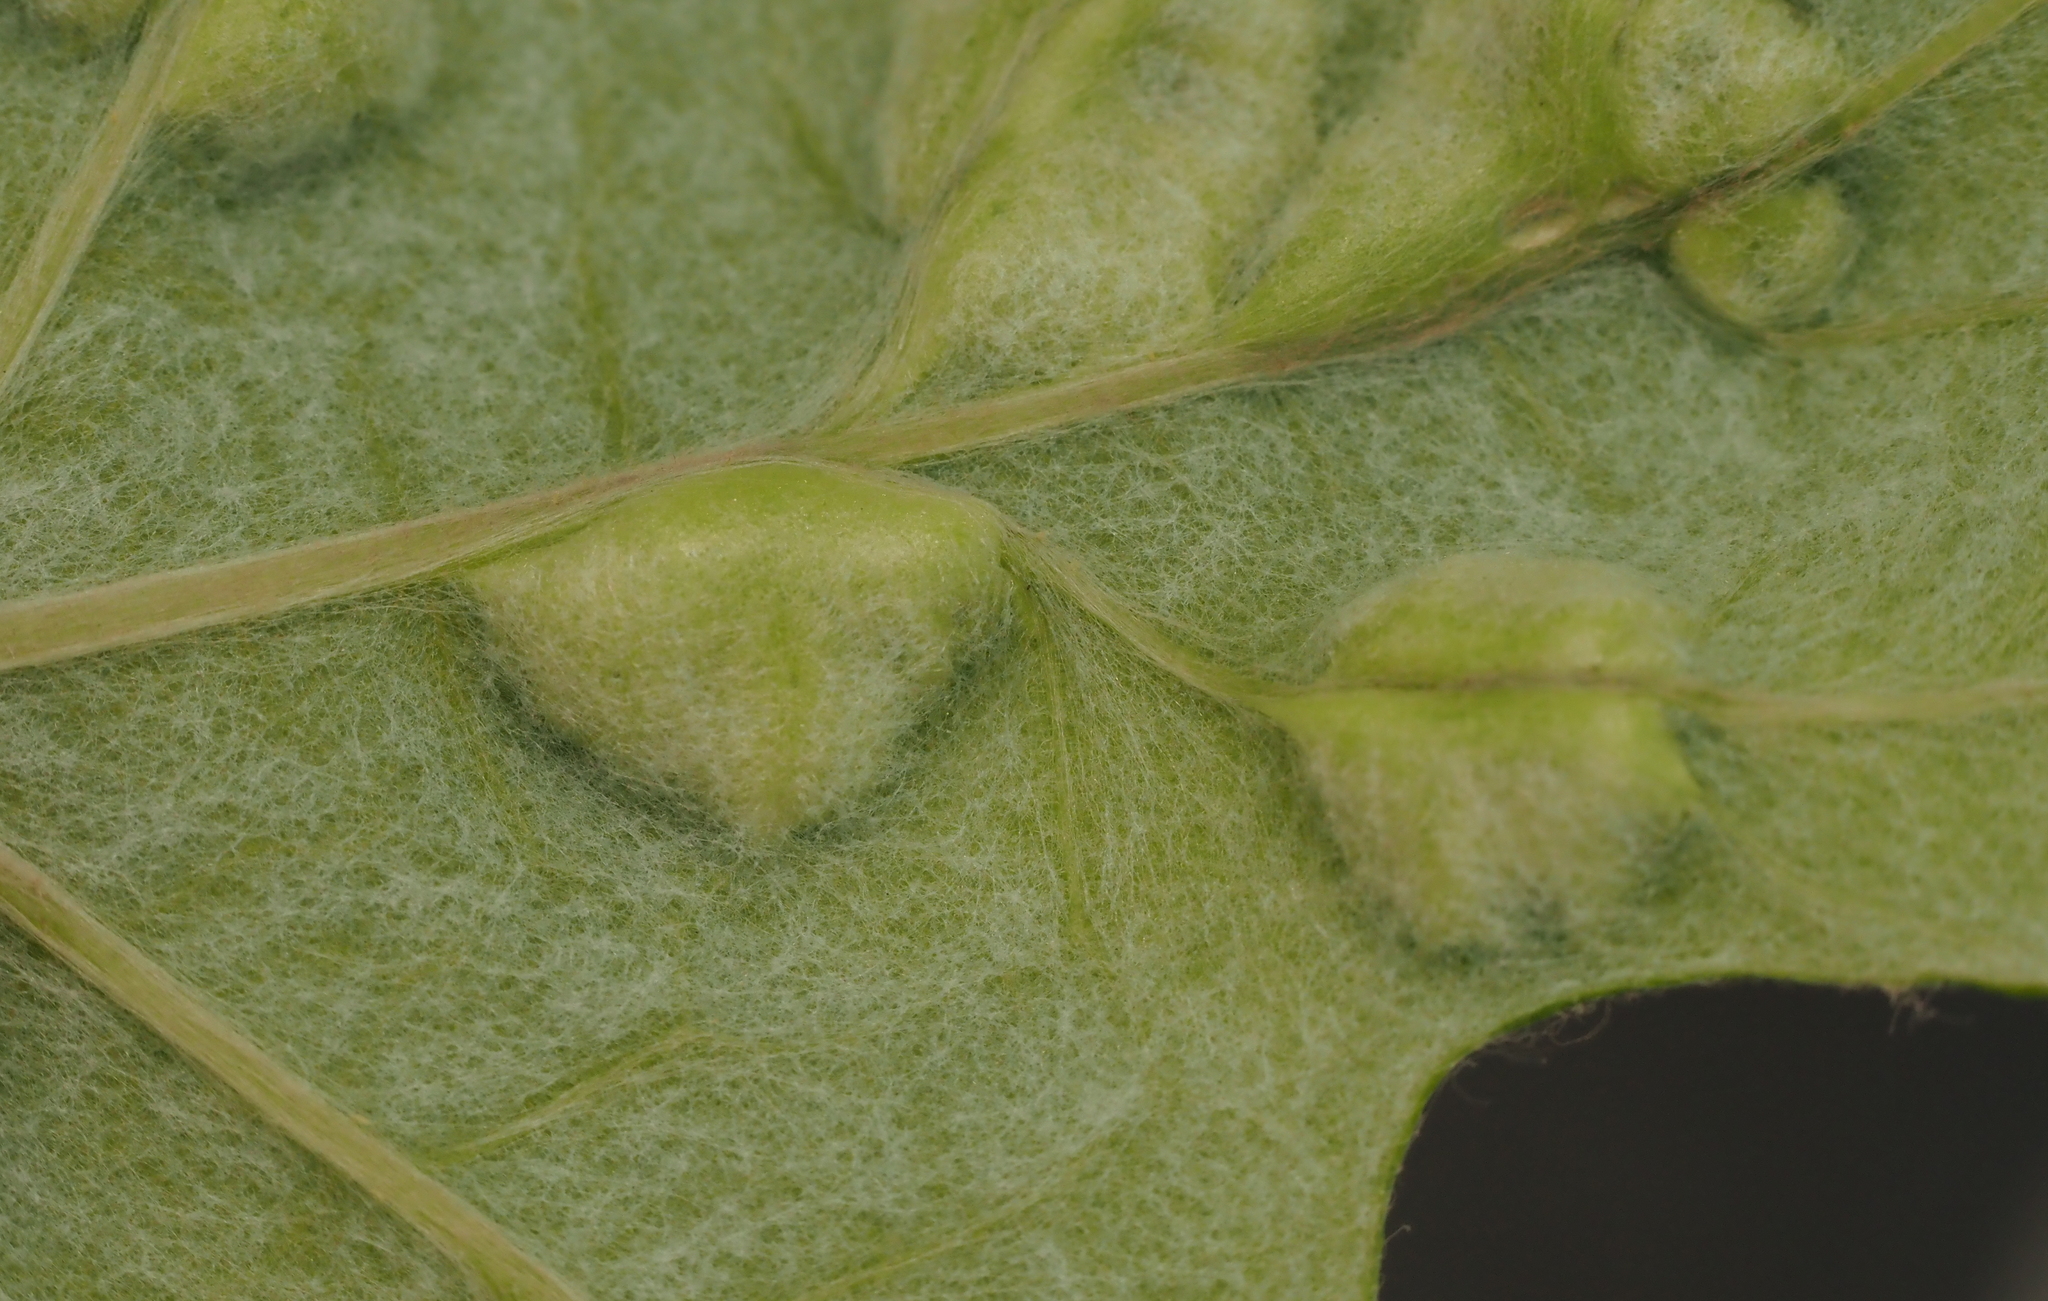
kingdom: Animalia
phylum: Arthropoda
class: Insecta
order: Lepidoptera
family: Heliozelidae
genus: Heliozela
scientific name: Heliozela aesella
